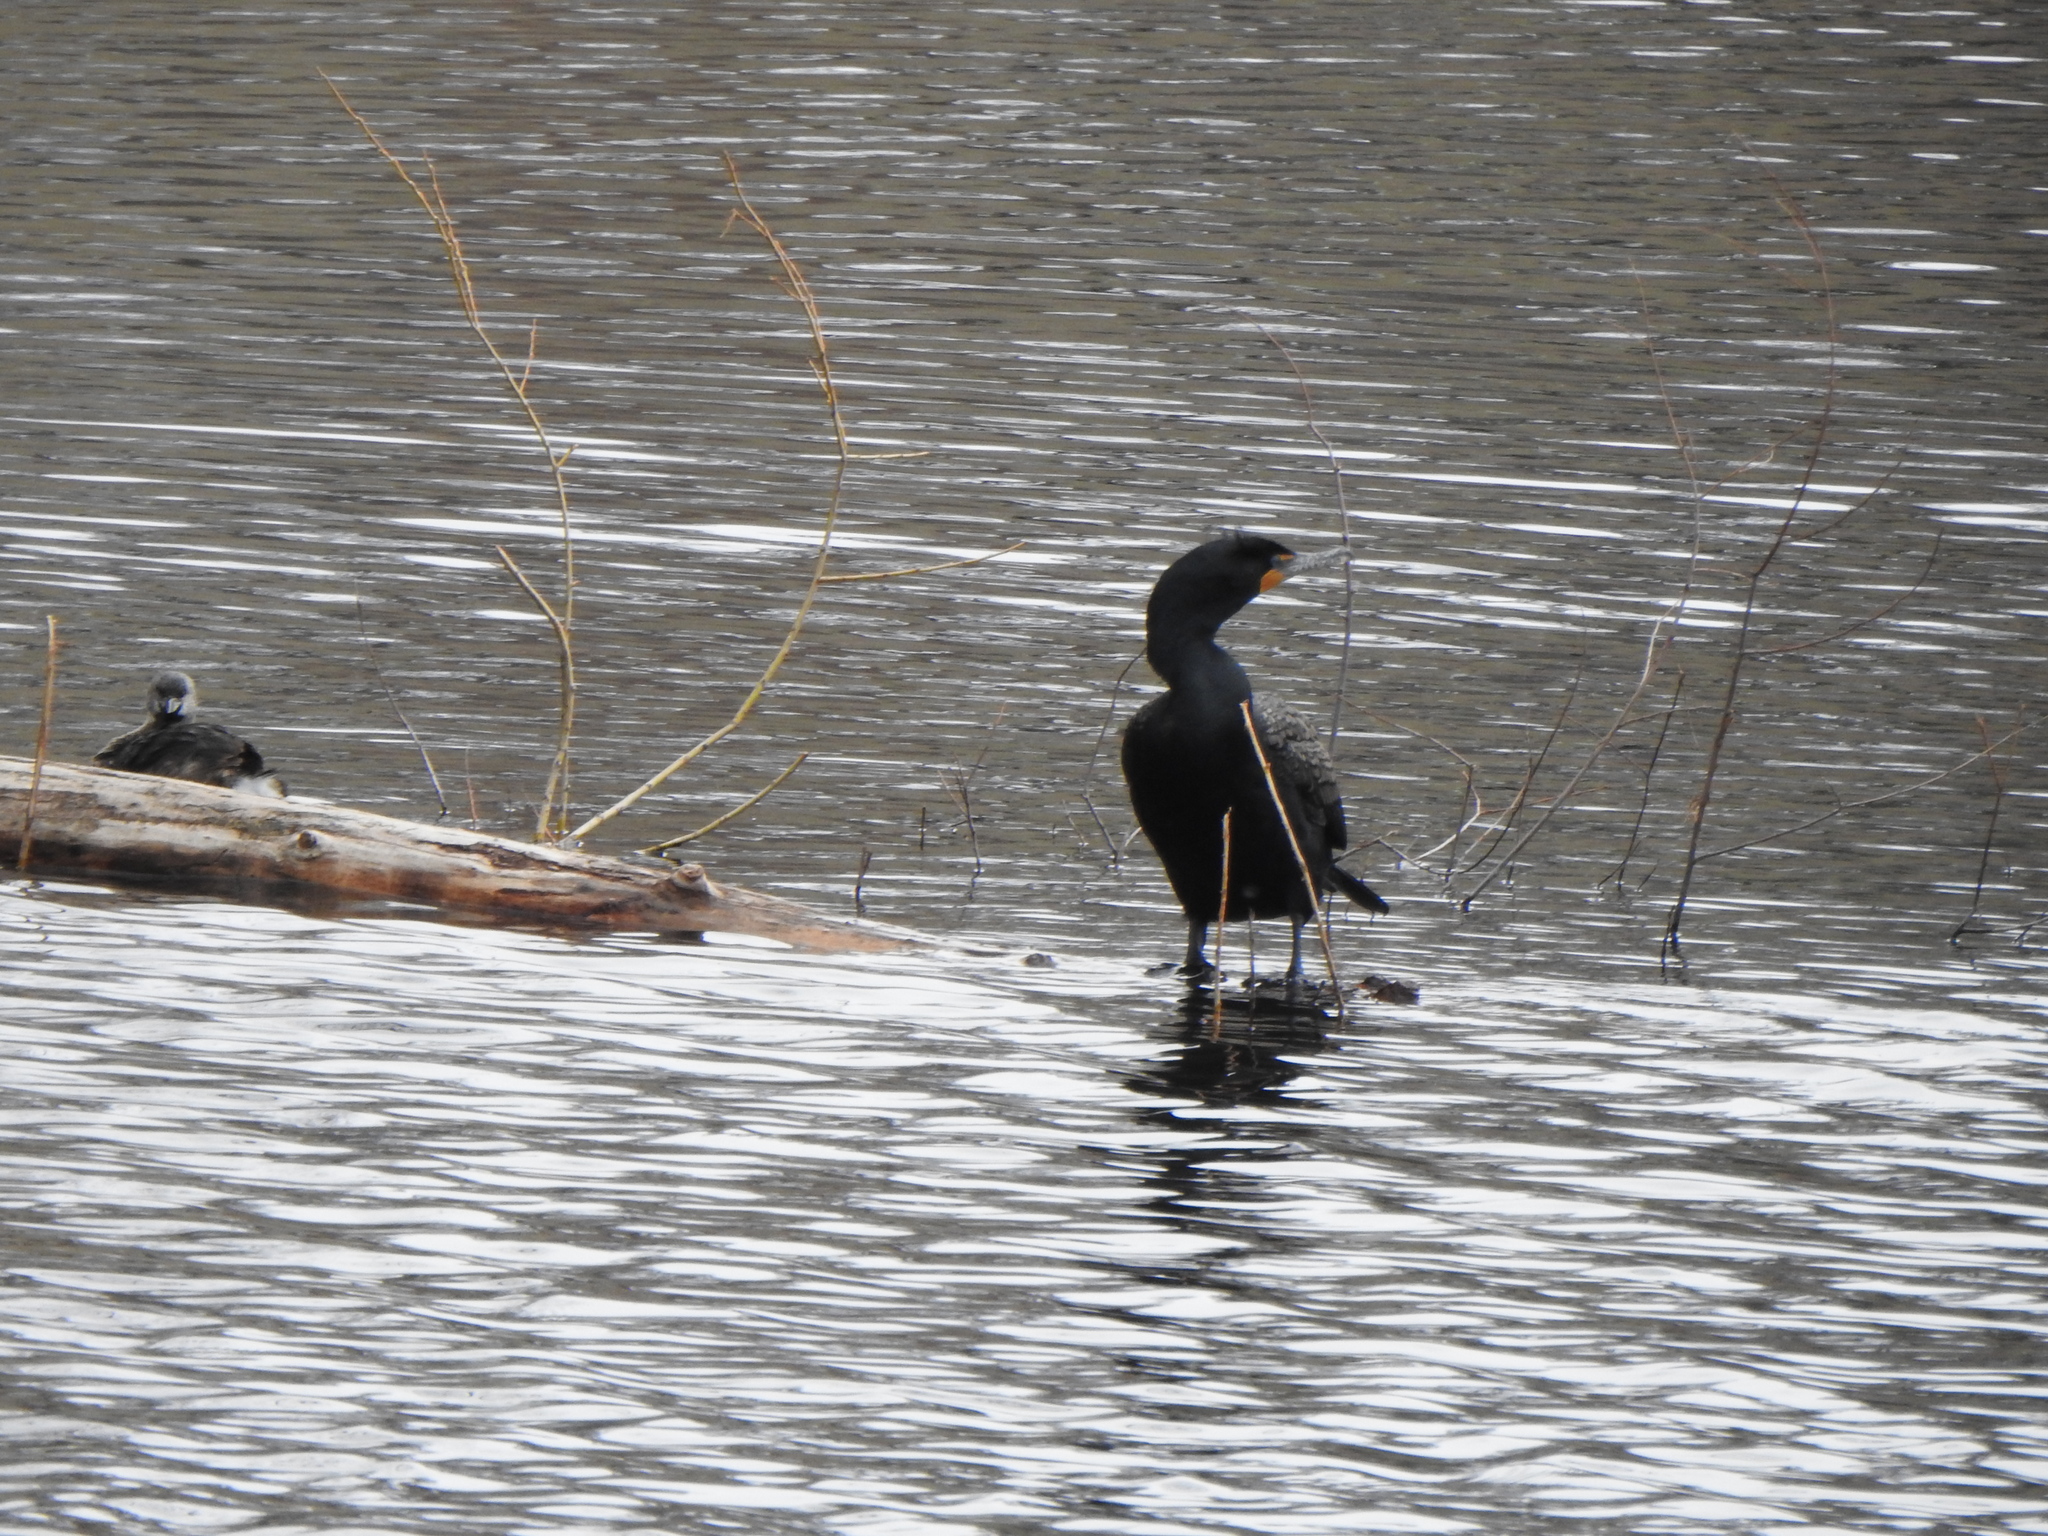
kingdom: Animalia
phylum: Chordata
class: Aves
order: Suliformes
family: Phalacrocoracidae
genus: Phalacrocorax
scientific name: Phalacrocorax auritus
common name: Double-crested cormorant
